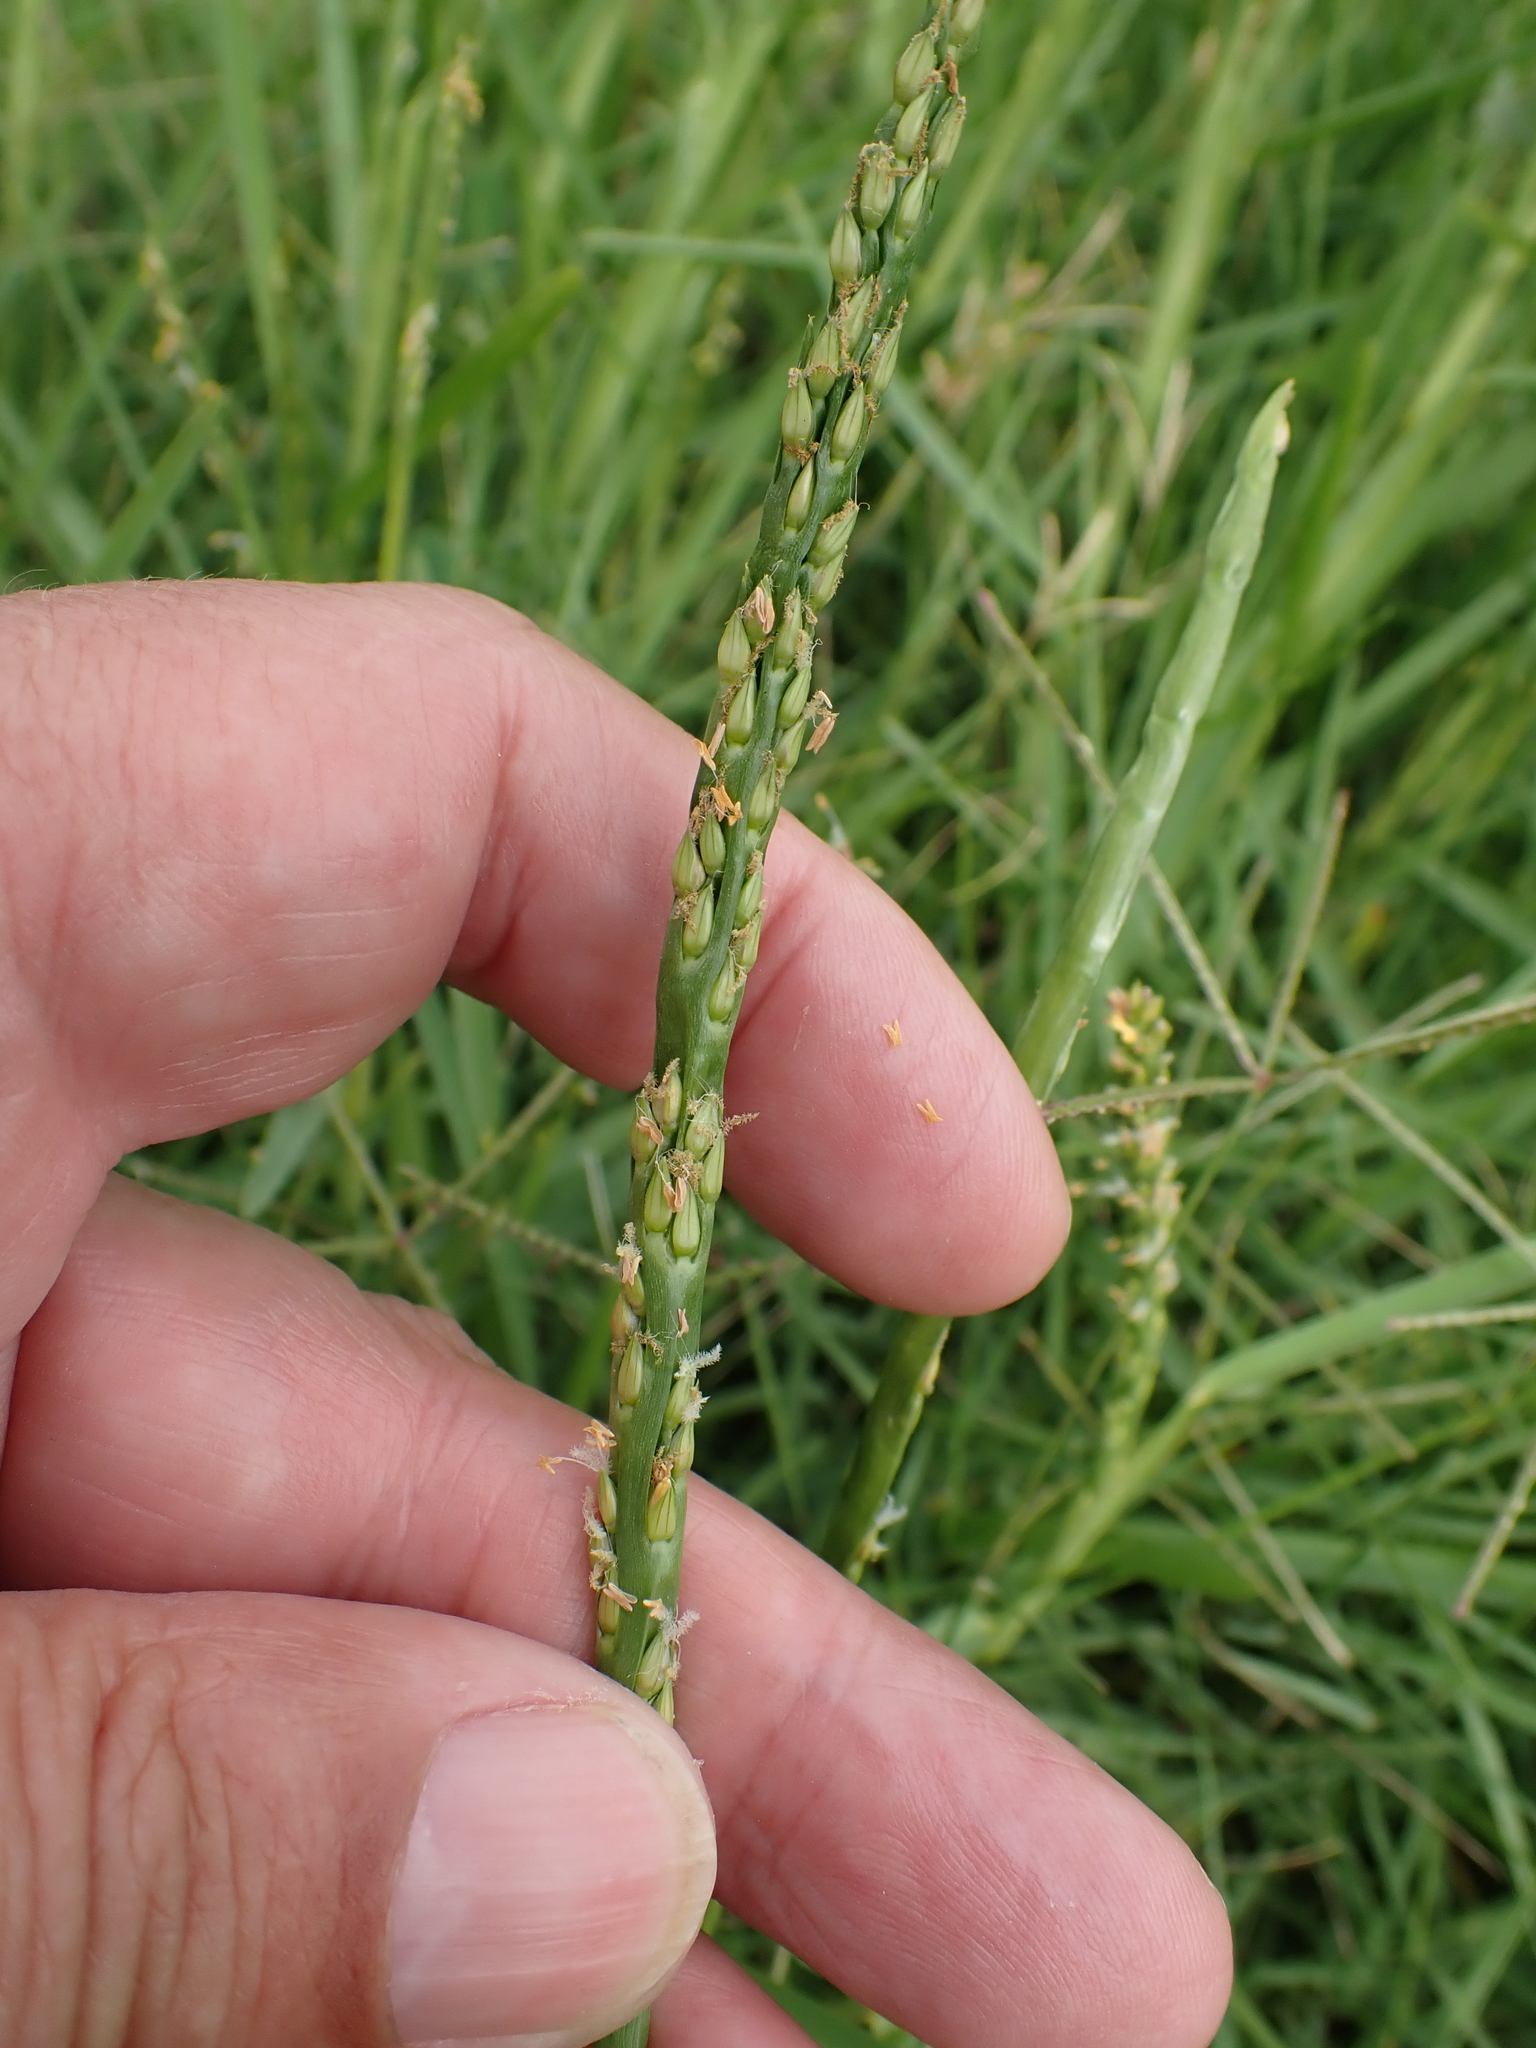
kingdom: Plantae
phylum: Tracheophyta
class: Liliopsida
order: Poales
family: Poaceae
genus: Stenotaphrum
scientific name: Stenotaphrum secundatum
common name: St. augustine grass
